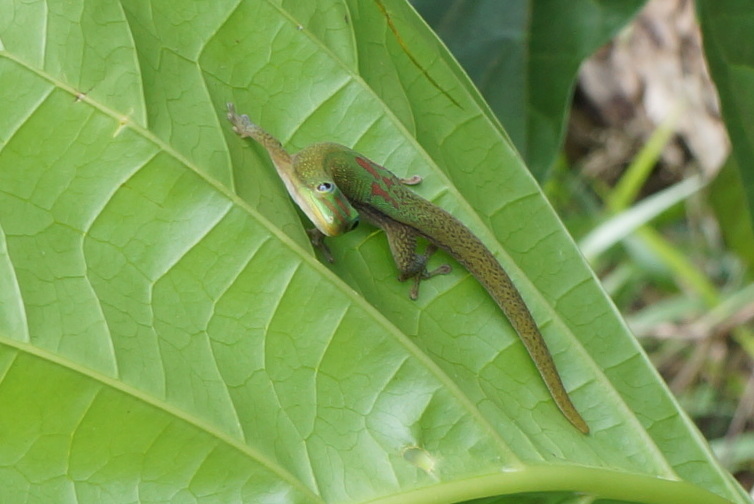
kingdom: Animalia
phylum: Chordata
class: Squamata
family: Gekkonidae
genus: Phelsuma
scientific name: Phelsuma laticauda
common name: Gold dust day gecko
